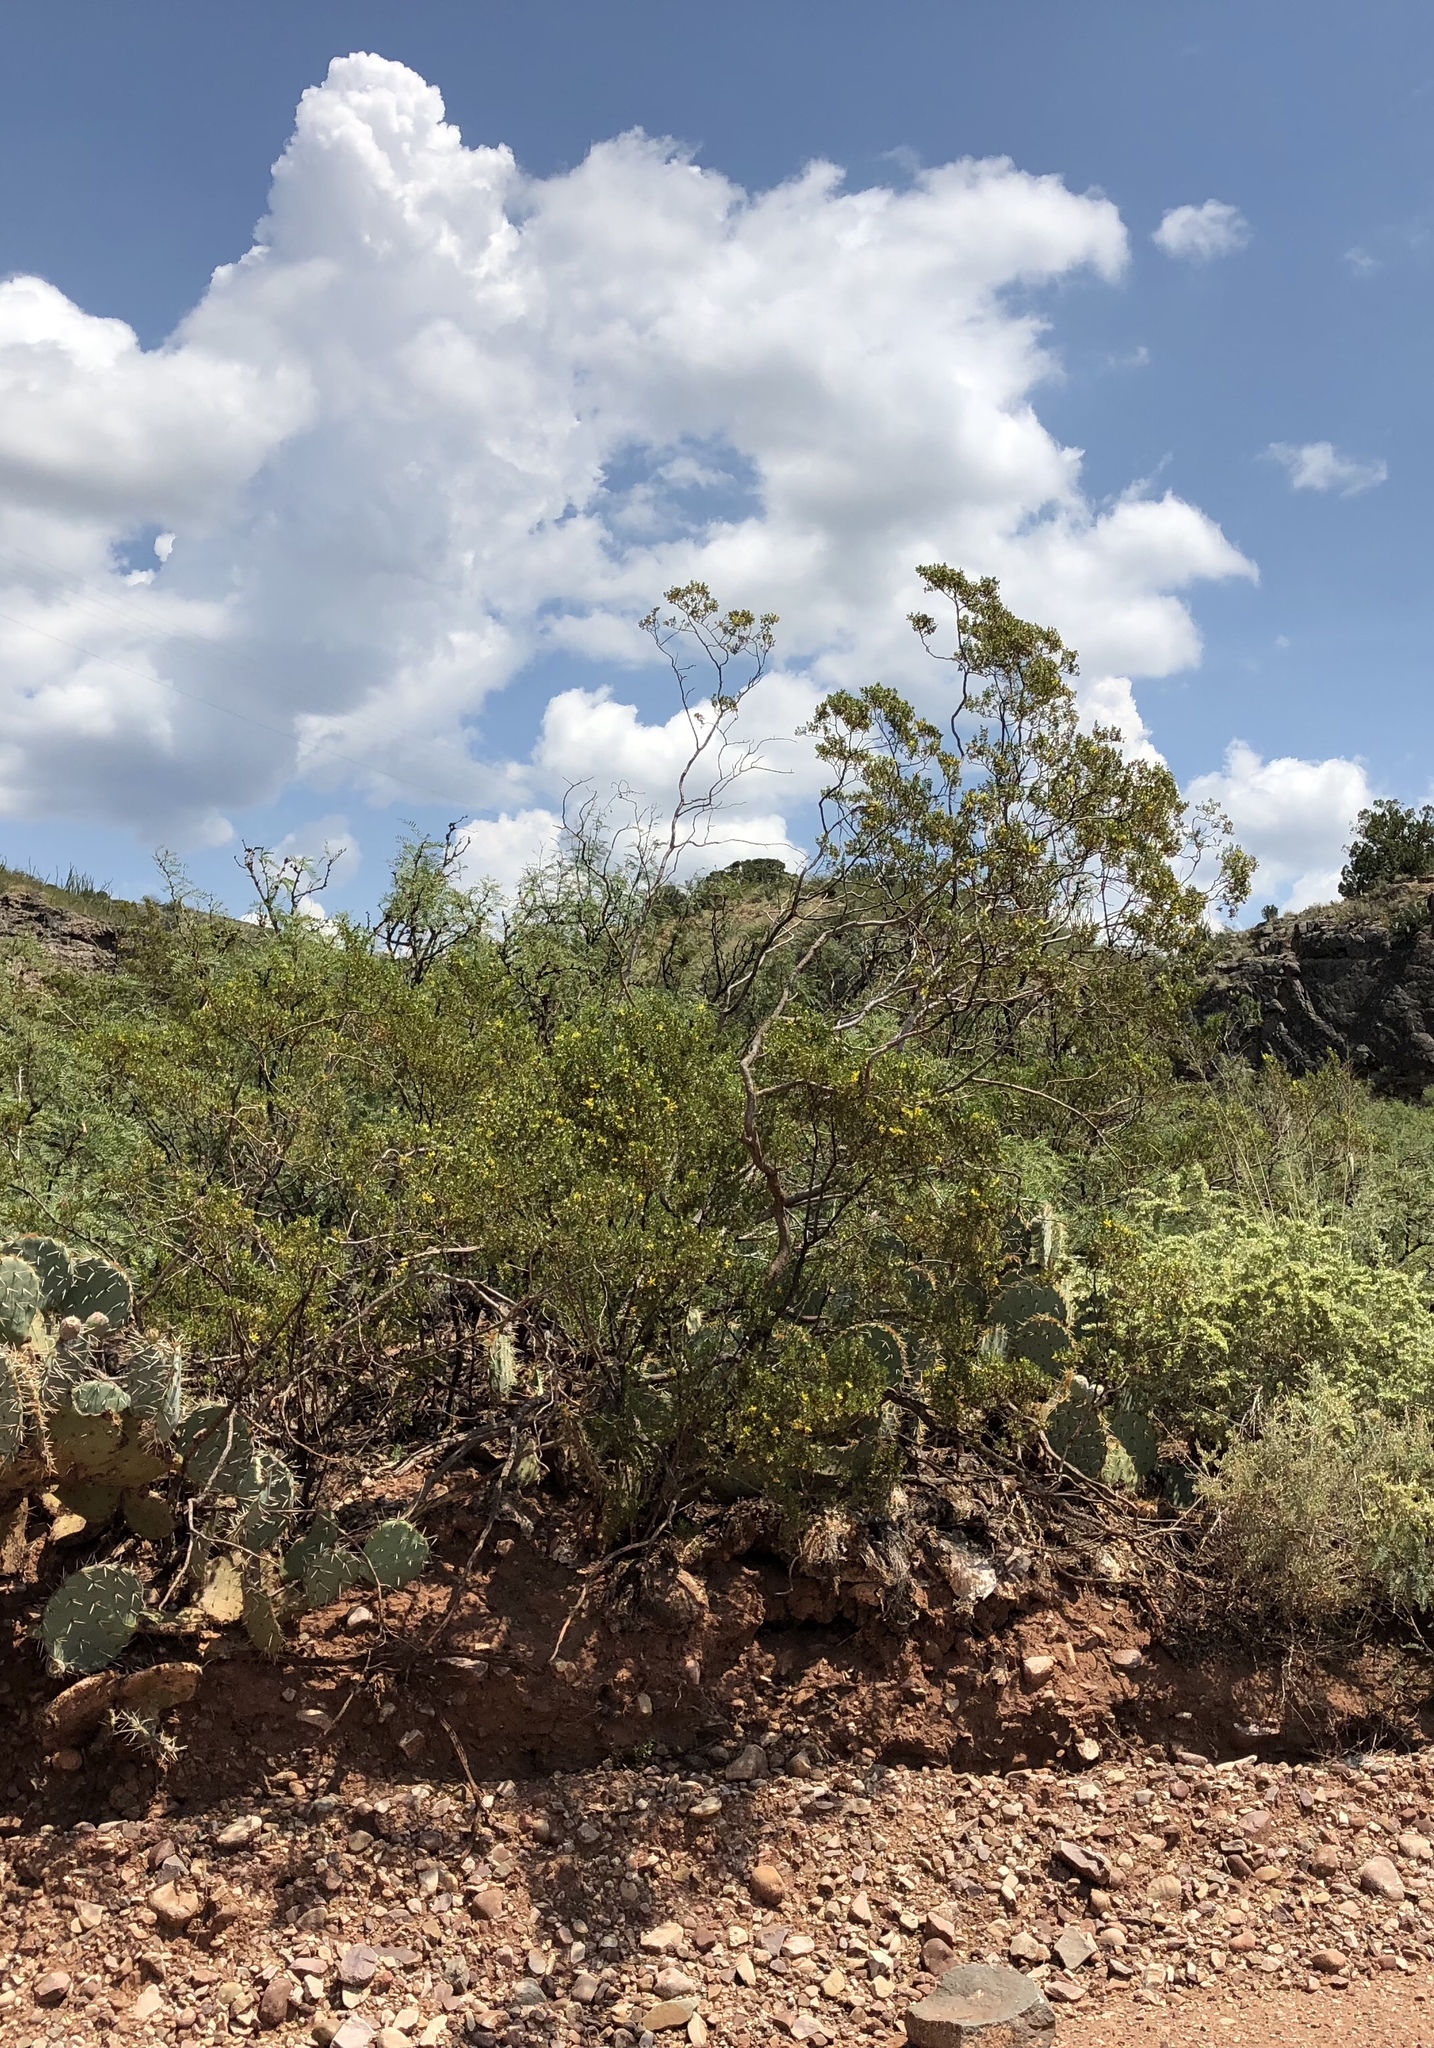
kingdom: Plantae
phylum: Tracheophyta
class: Magnoliopsida
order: Zygophyllales
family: Zygophyllaceae
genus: Larrea
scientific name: Larrea tridentata
